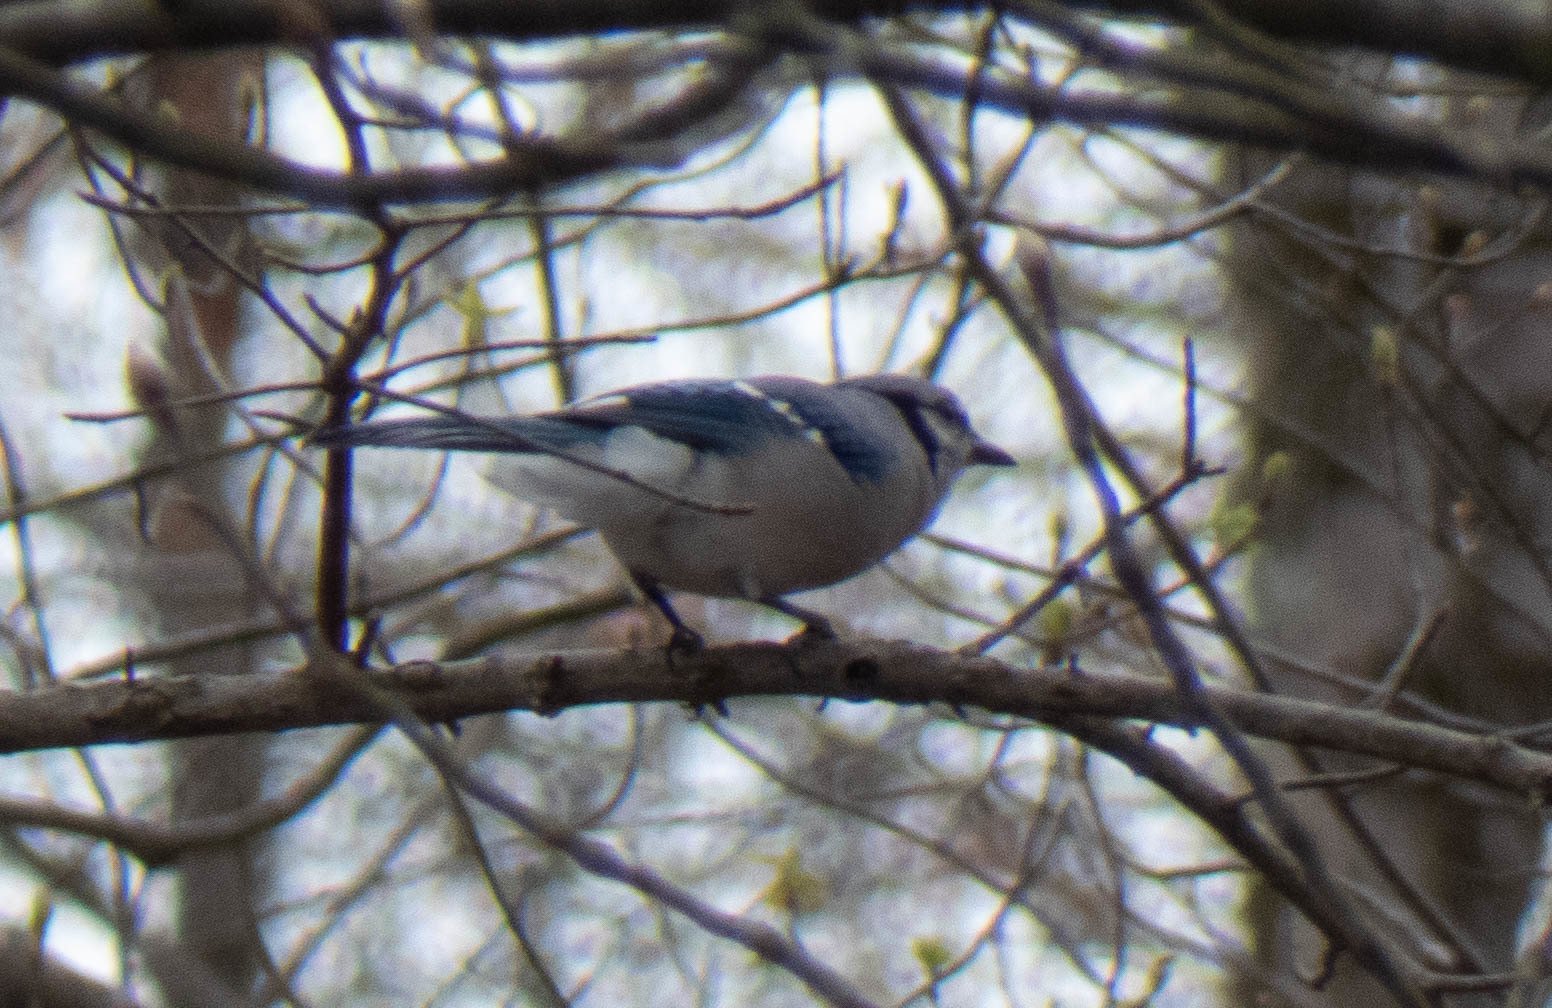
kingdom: Animalia
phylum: Chordata
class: Aves
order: Passeriformes
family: Corvidae
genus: Cyanocitta
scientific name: Cyanocitta cristata
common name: Blue jay
